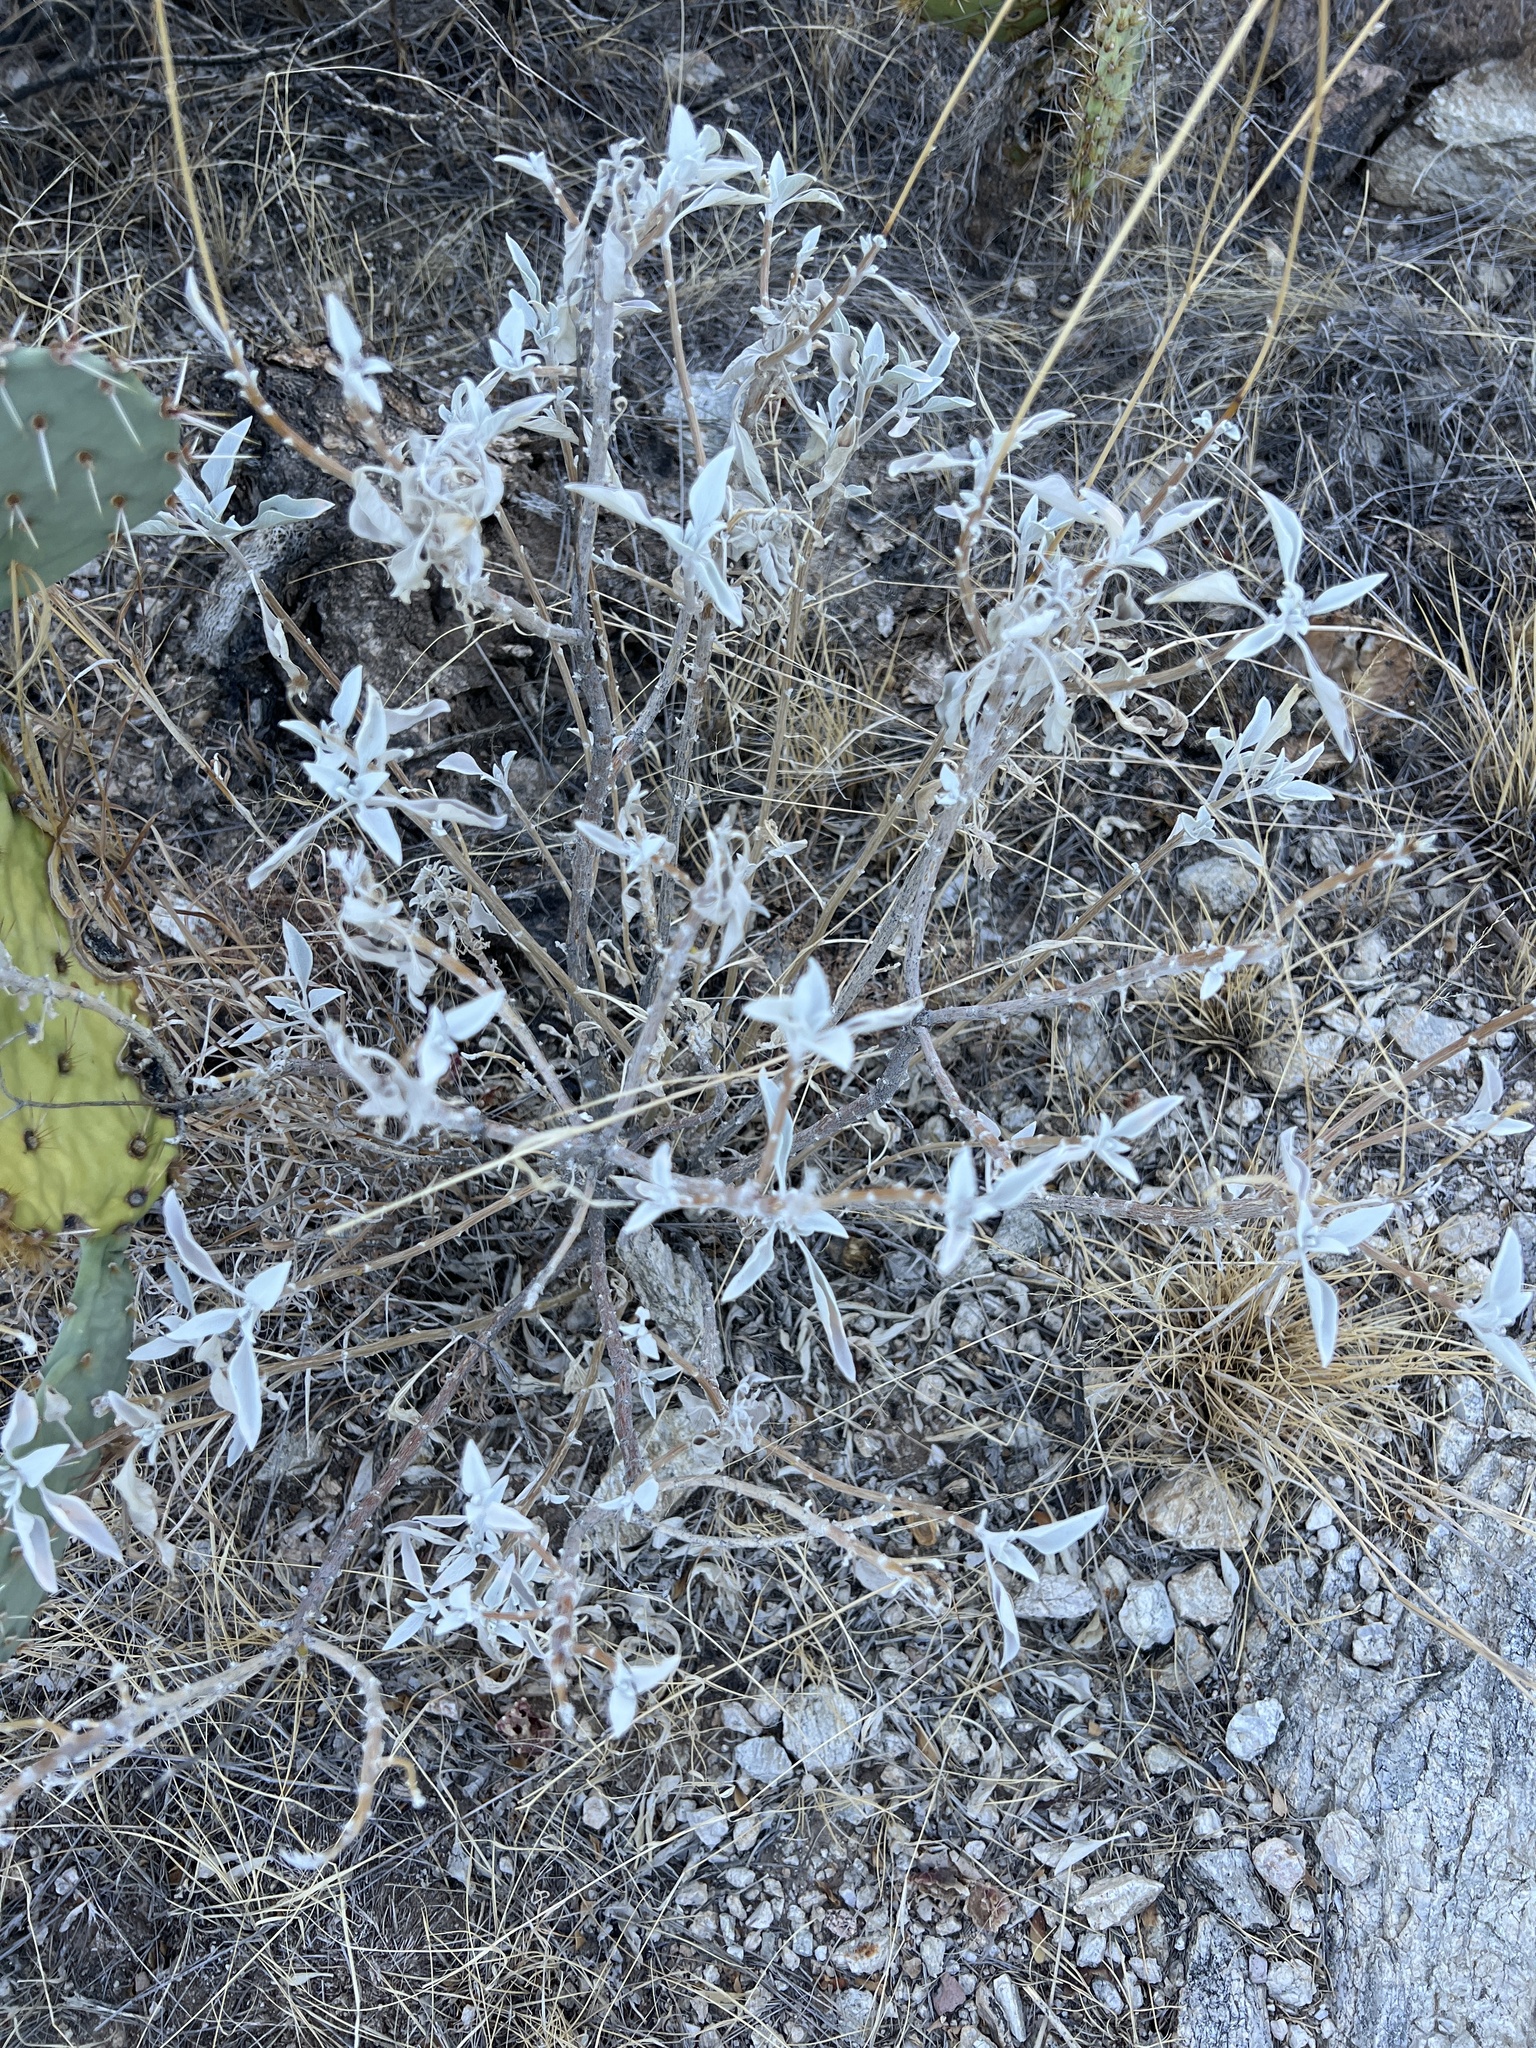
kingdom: Plantae
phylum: Tracheophyta
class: Magnoliopsida
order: Asterales
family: Asteraceae
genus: Encelia
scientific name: Encelia farinosa
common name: Brittlebush
